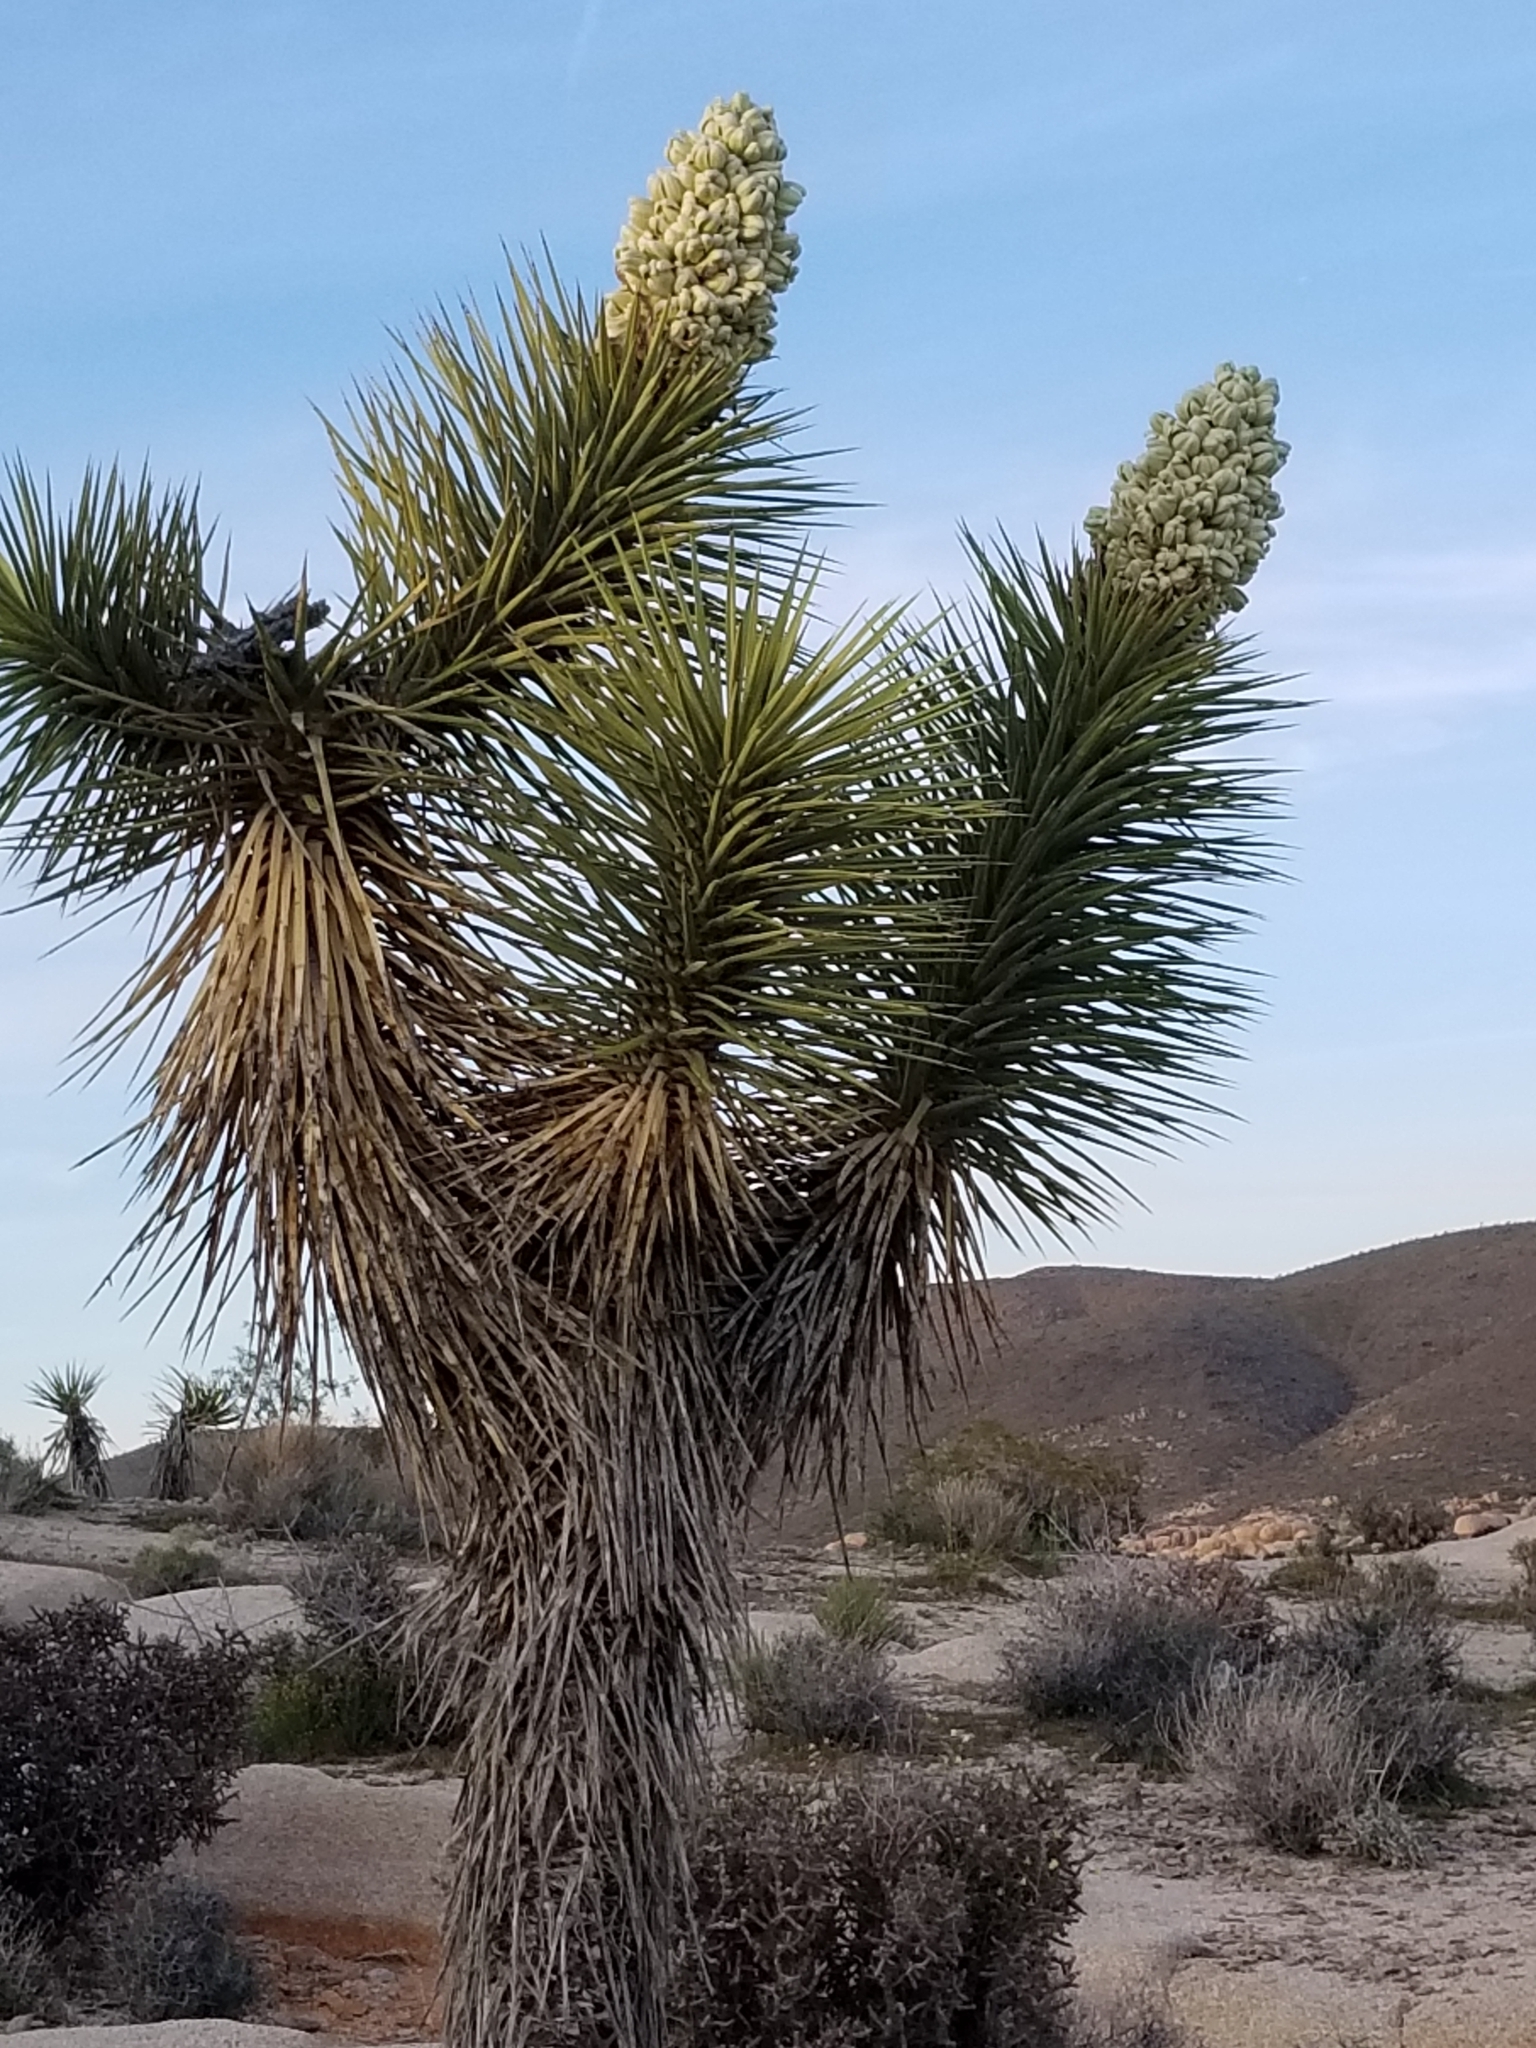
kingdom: Plantae
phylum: Tracheophyta
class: Liliopsida
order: Asparagales
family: Asparagaceae
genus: Yucca
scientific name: Yucca brevifolia
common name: Joshua tree
